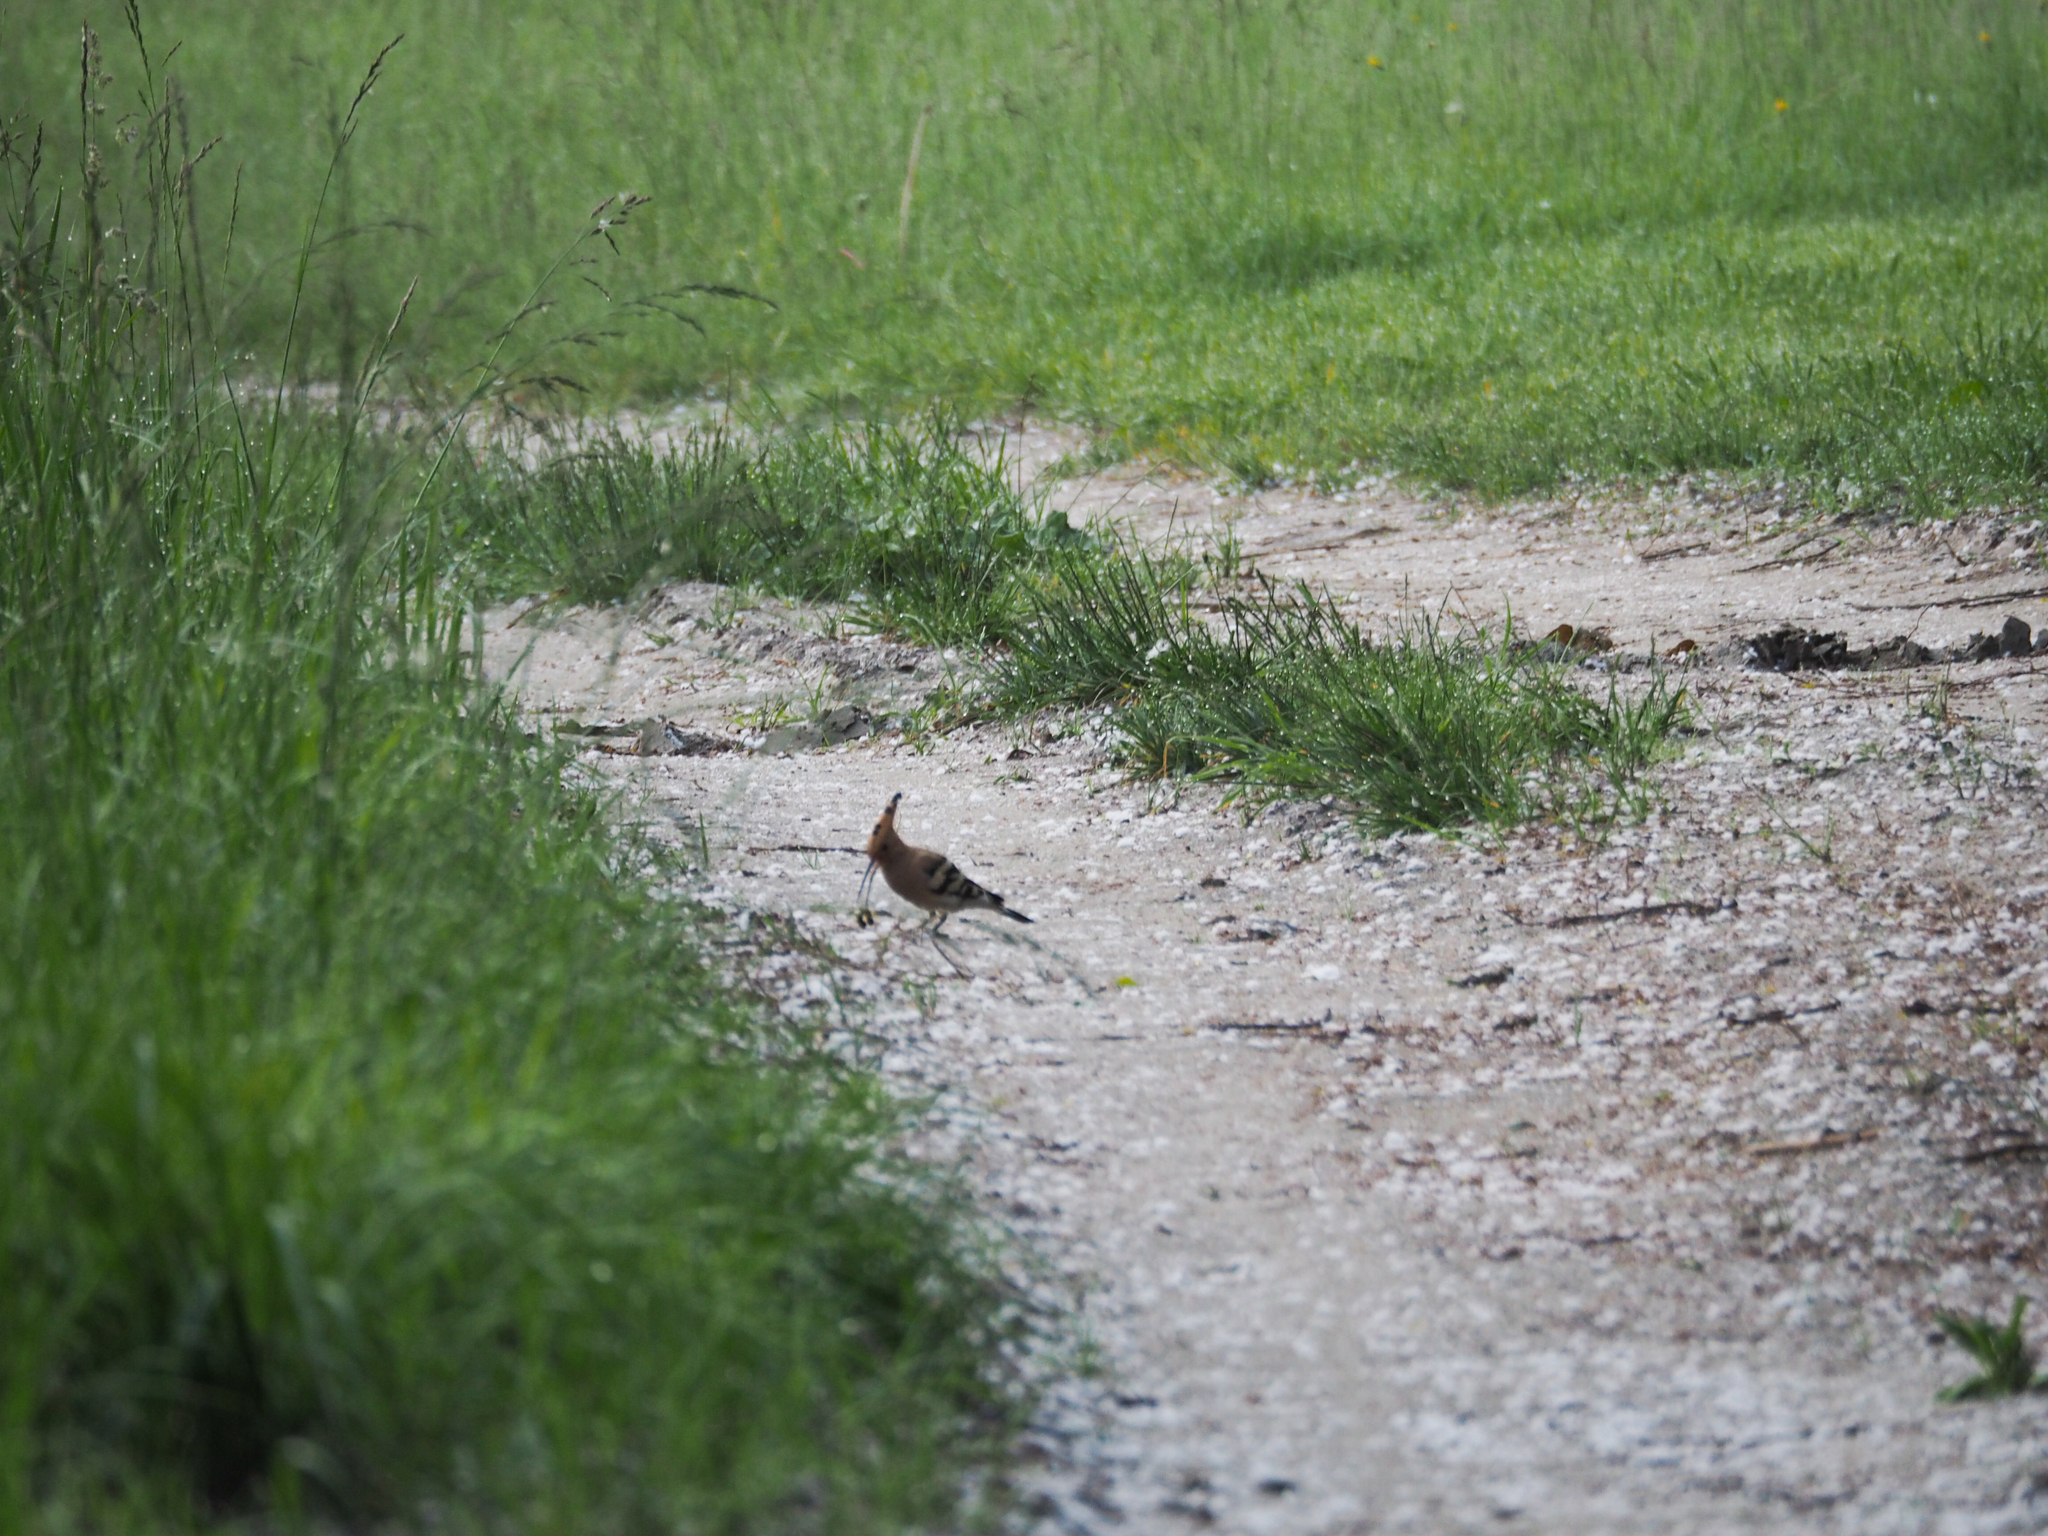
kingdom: Animalia
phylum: Chordata
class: Aves
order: Bucerotiformes
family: Upupidae
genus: Upupa
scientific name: Upupa epops
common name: Eurasian hoopoe
